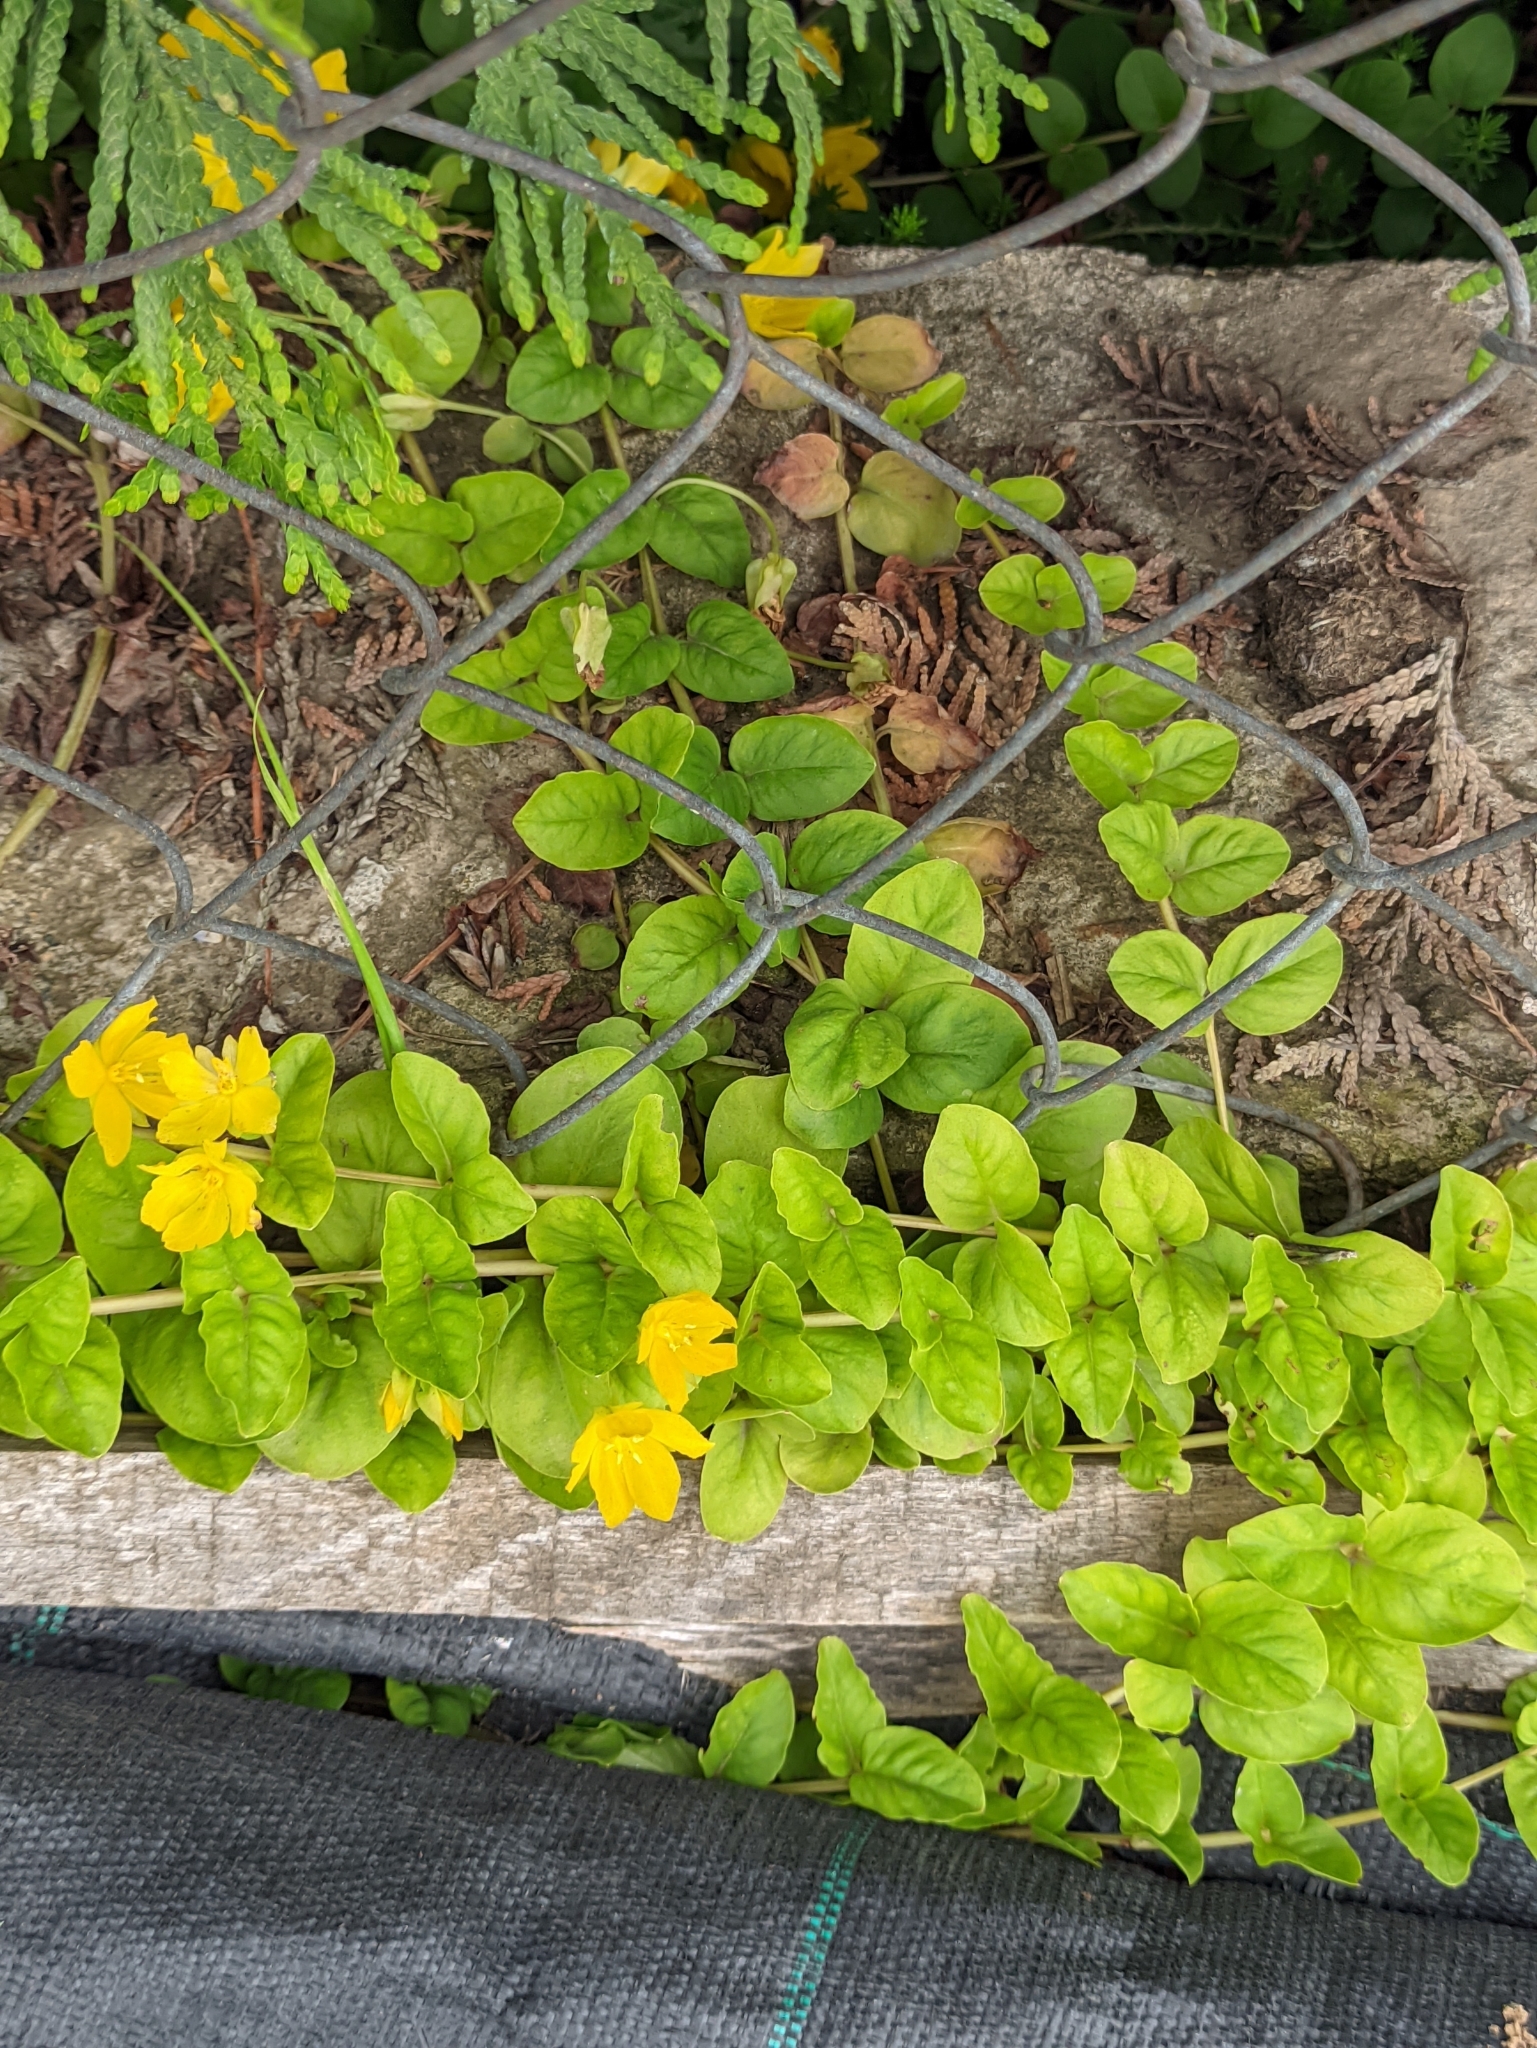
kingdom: Plantae
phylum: Tracheophyta
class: Magnoliopsida
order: Ericales
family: Primulaceae
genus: Lysimachia
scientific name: Lysimachia nummularia
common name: Moneywort
